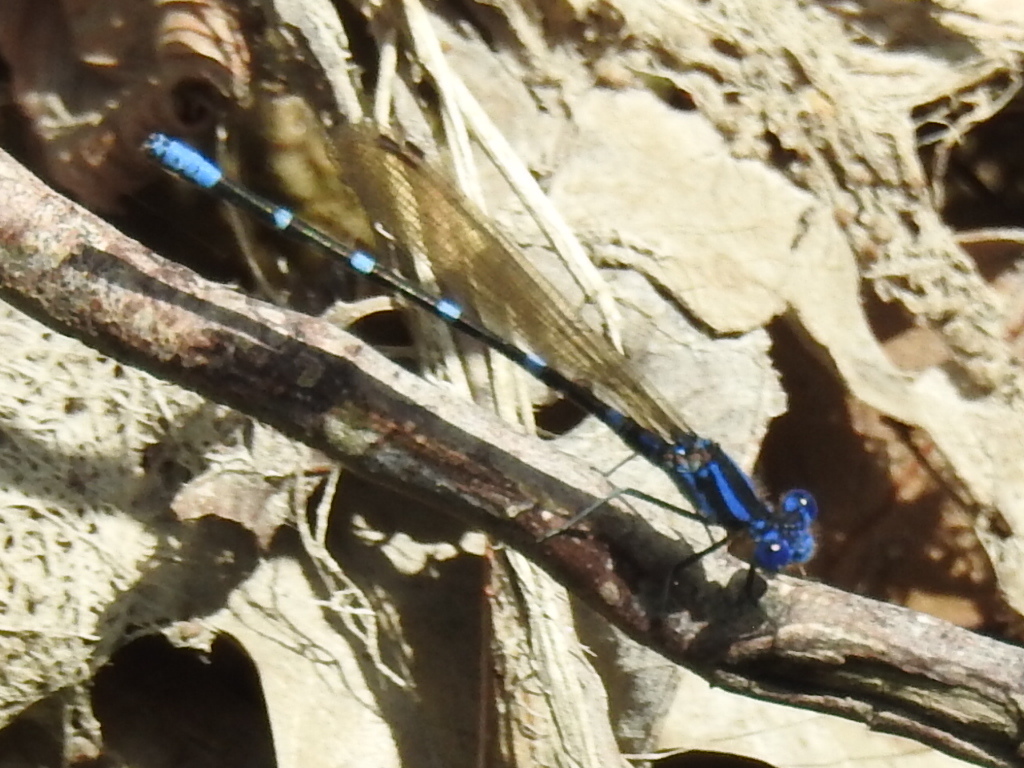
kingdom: Animalia
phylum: Arthropoda
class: Insecta
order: Odonata
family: Coenagrionidae
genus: Argia
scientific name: Argia sedula
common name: Blue-ringed dancer
